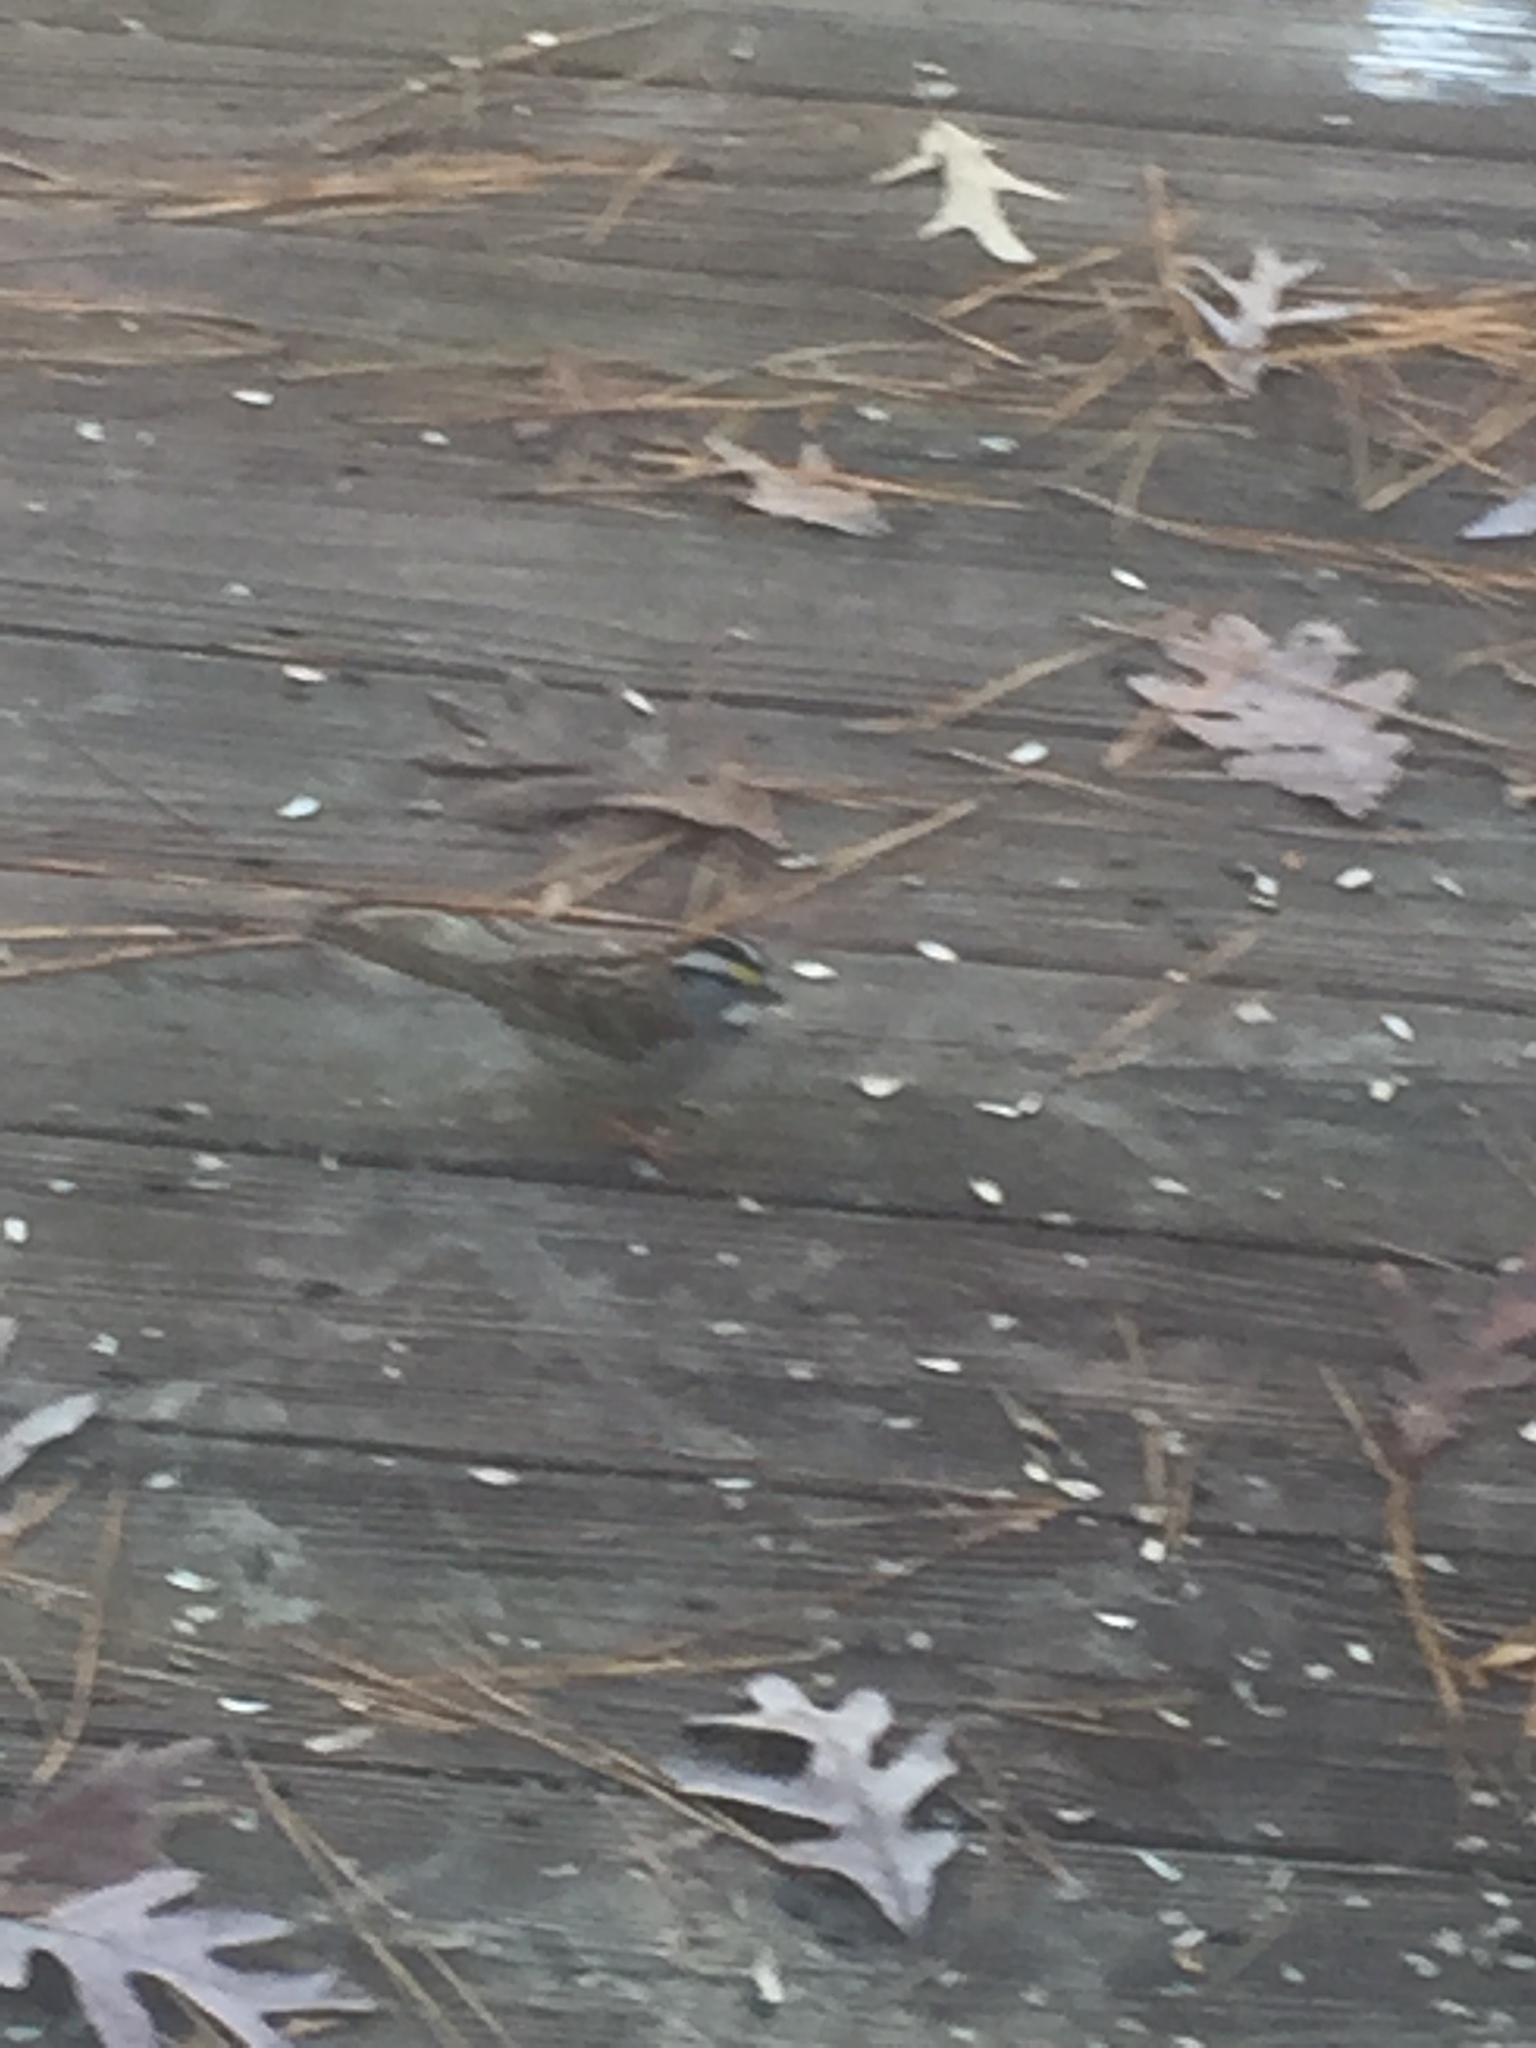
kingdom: Animalia
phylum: Chordata
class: Aves
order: Passeriformes
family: Passerellidae
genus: Zonotrichia
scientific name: Zonotrichia albicollis
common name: White-throated sparrow
